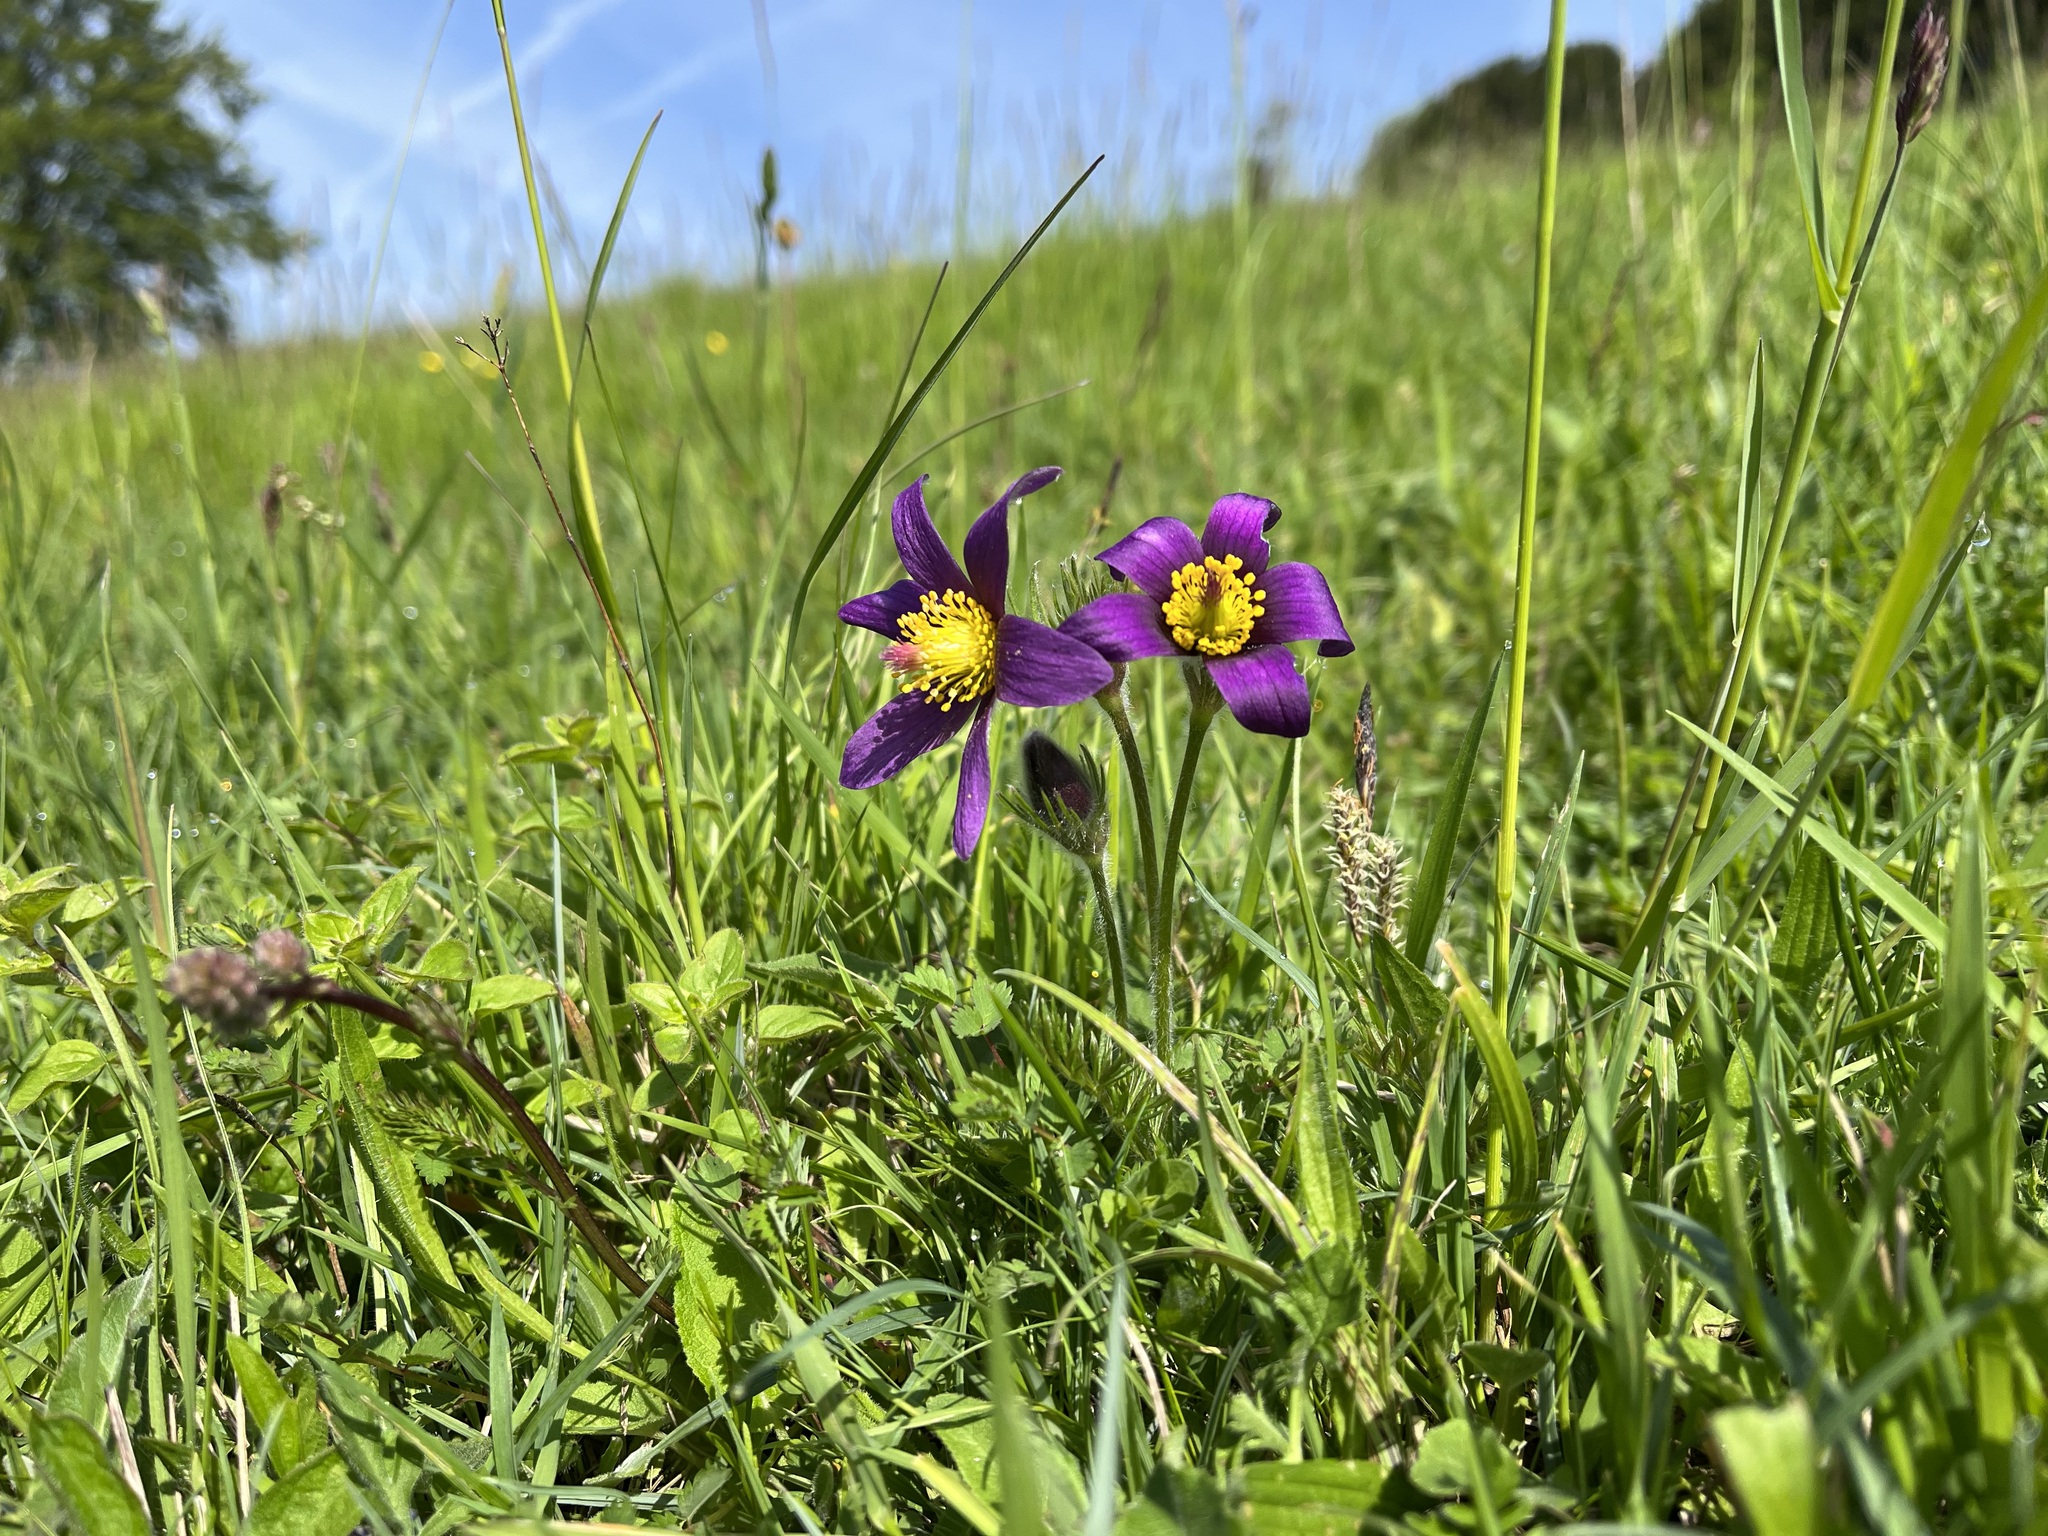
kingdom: Plantae
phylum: Tracheophyta
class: Magnoliopsida
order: Ranunculales
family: Ranunculaceae
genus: Pulsatilla
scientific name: Pulsatilla vulgaris
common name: Pasqueflower
